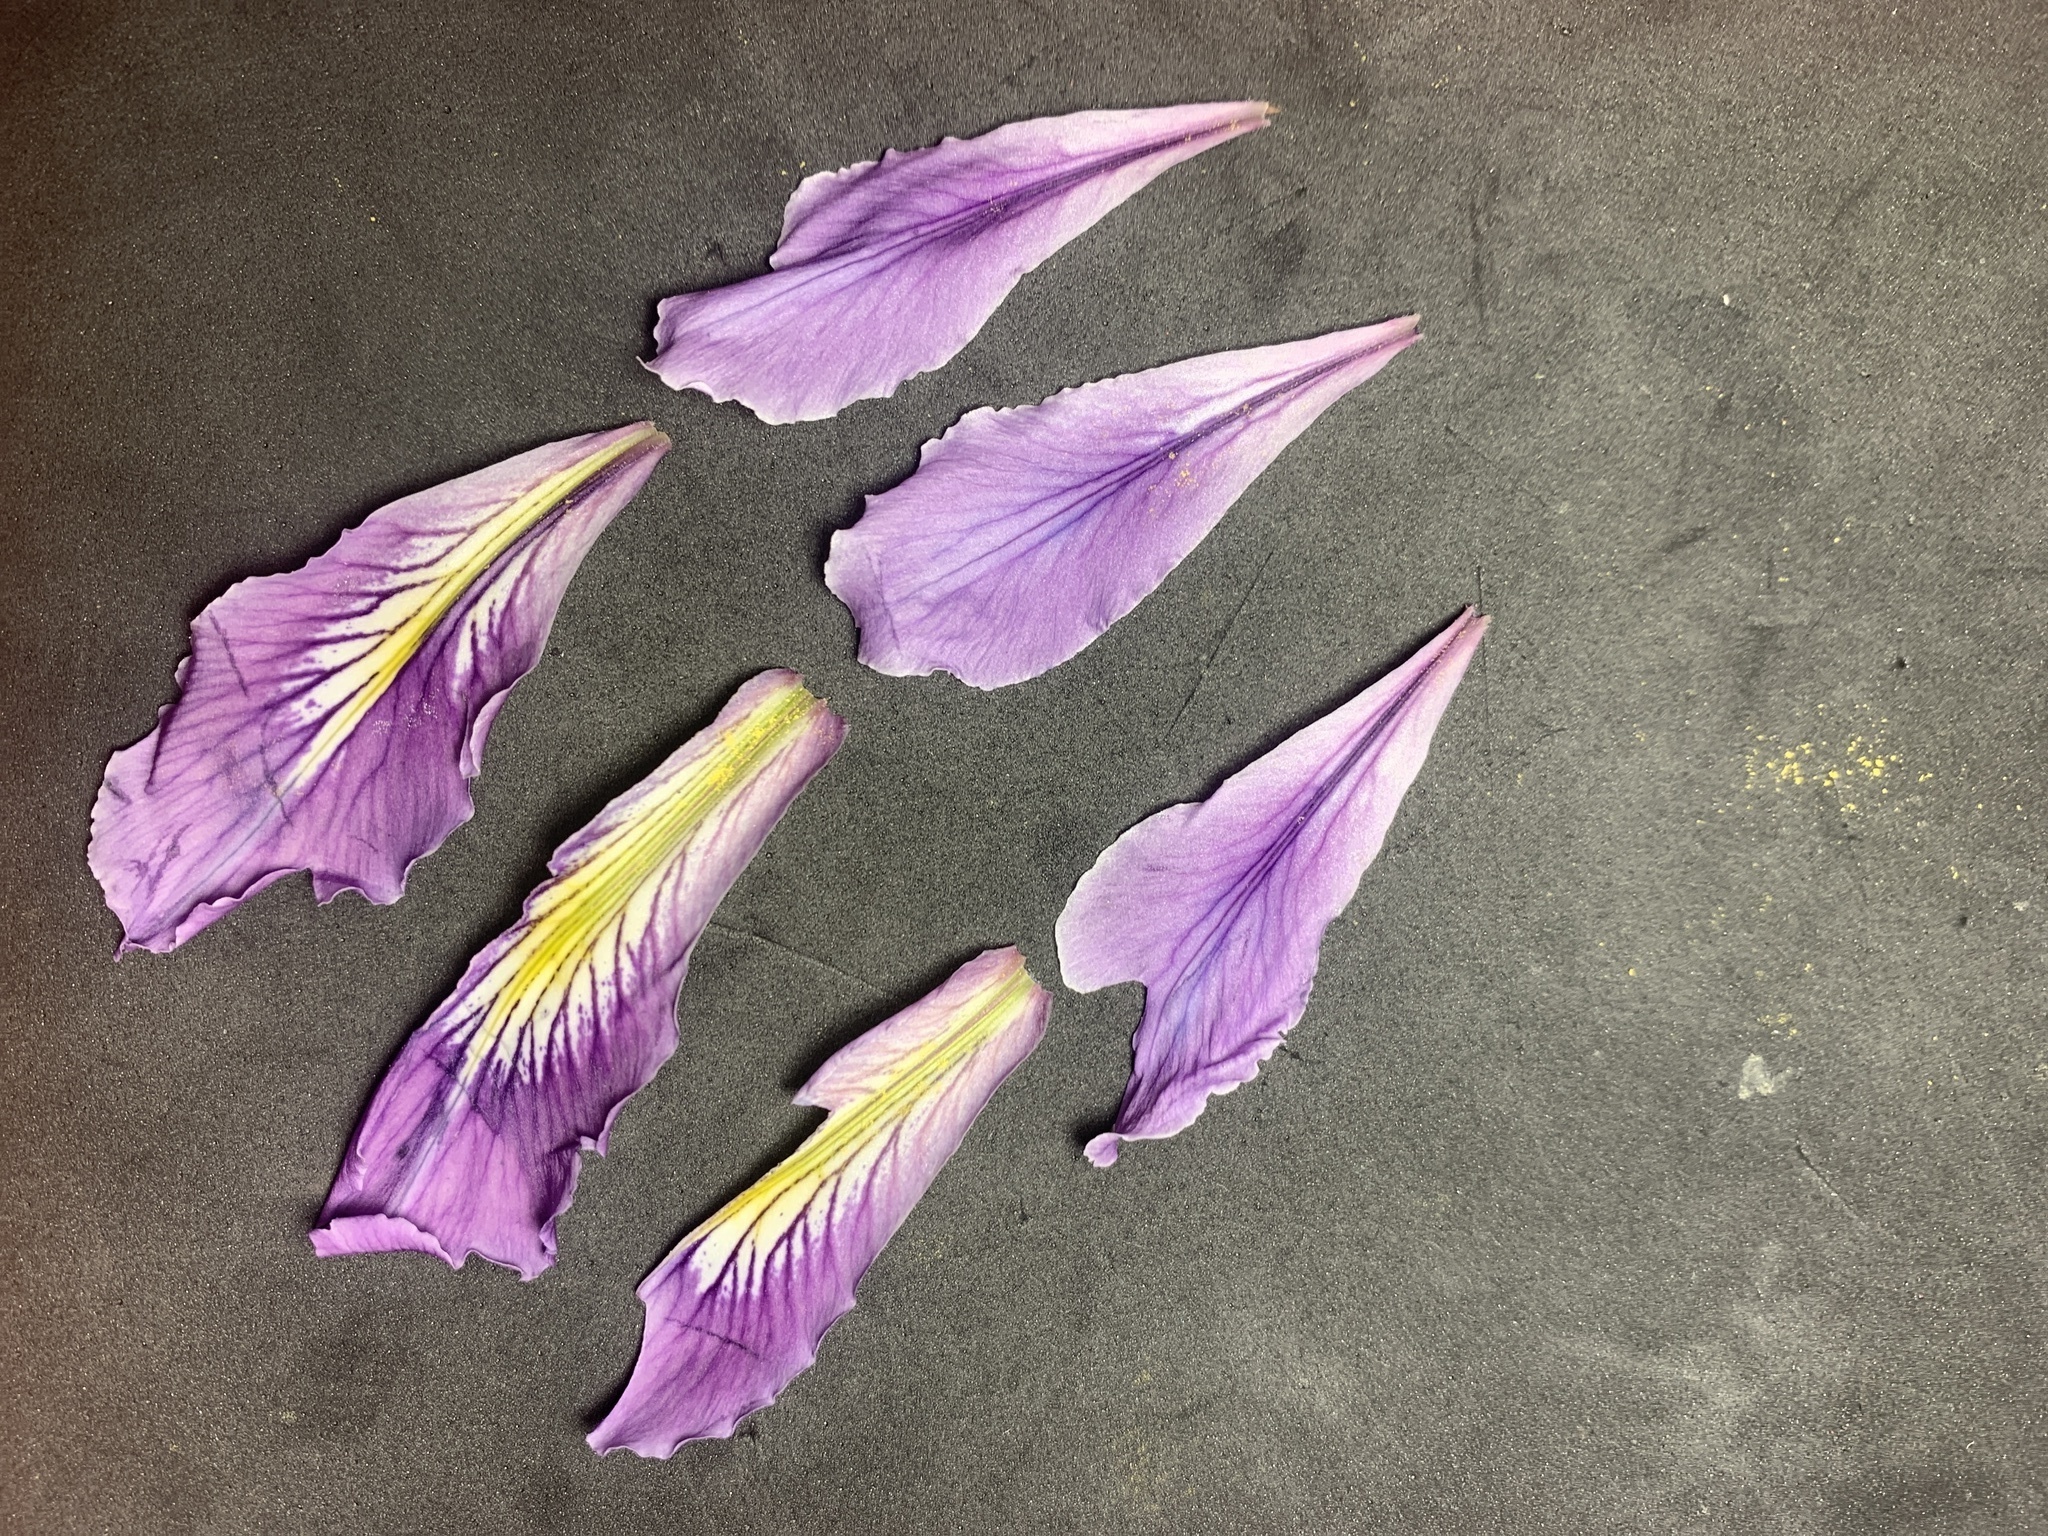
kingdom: Plantae
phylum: Tracheophyta
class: Liliopsida
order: Asparagales
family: Iridaceae
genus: Iris
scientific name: Iris tenax
